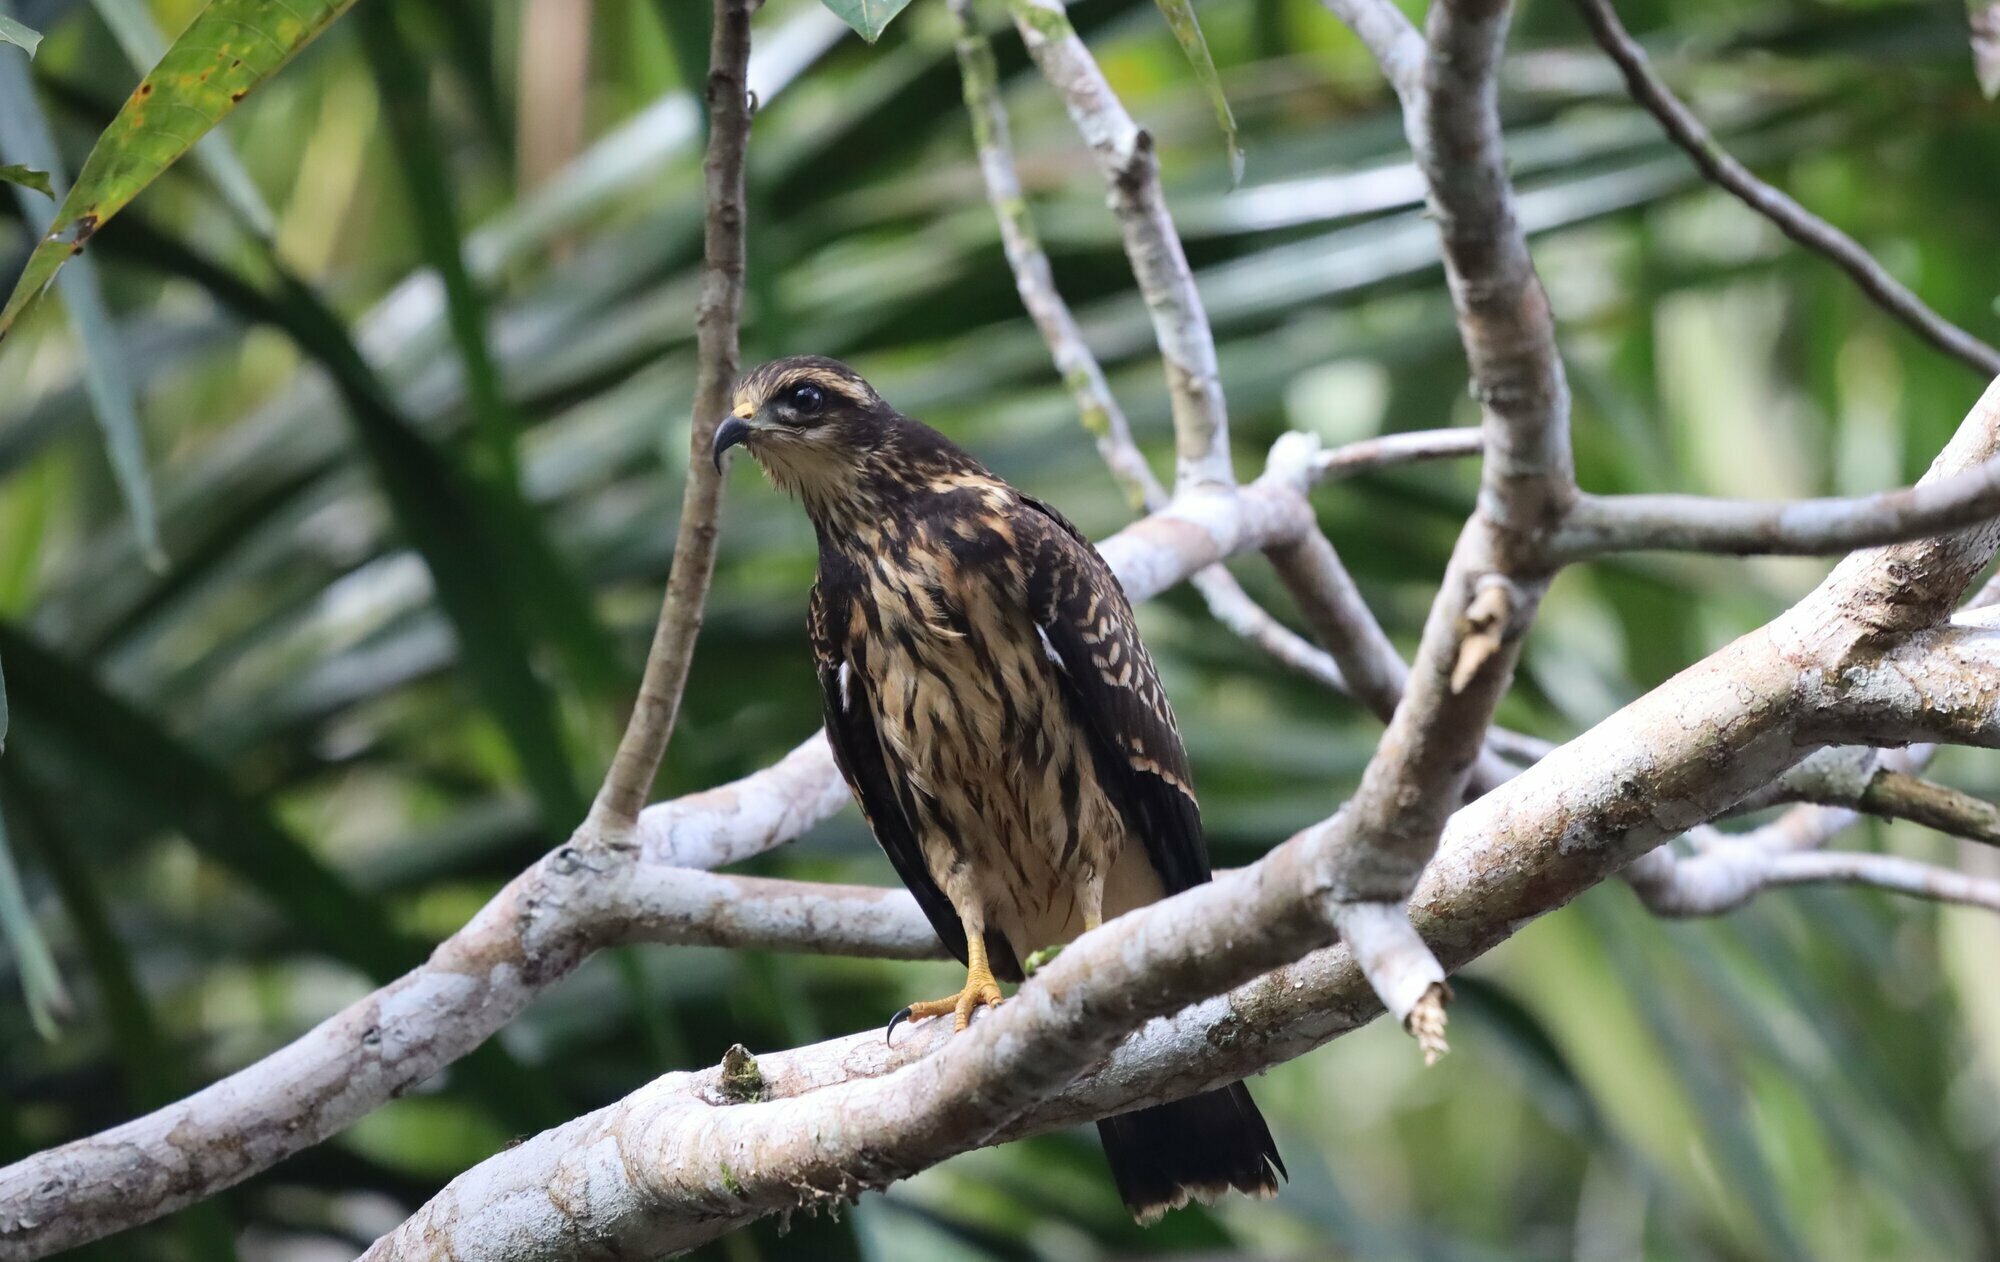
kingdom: Animalia
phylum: Chordata
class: Aves
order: Accipitriformes
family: Accipitridae
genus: Rostrhamus
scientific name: Rostrhamus sociabilis
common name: Snail kite
